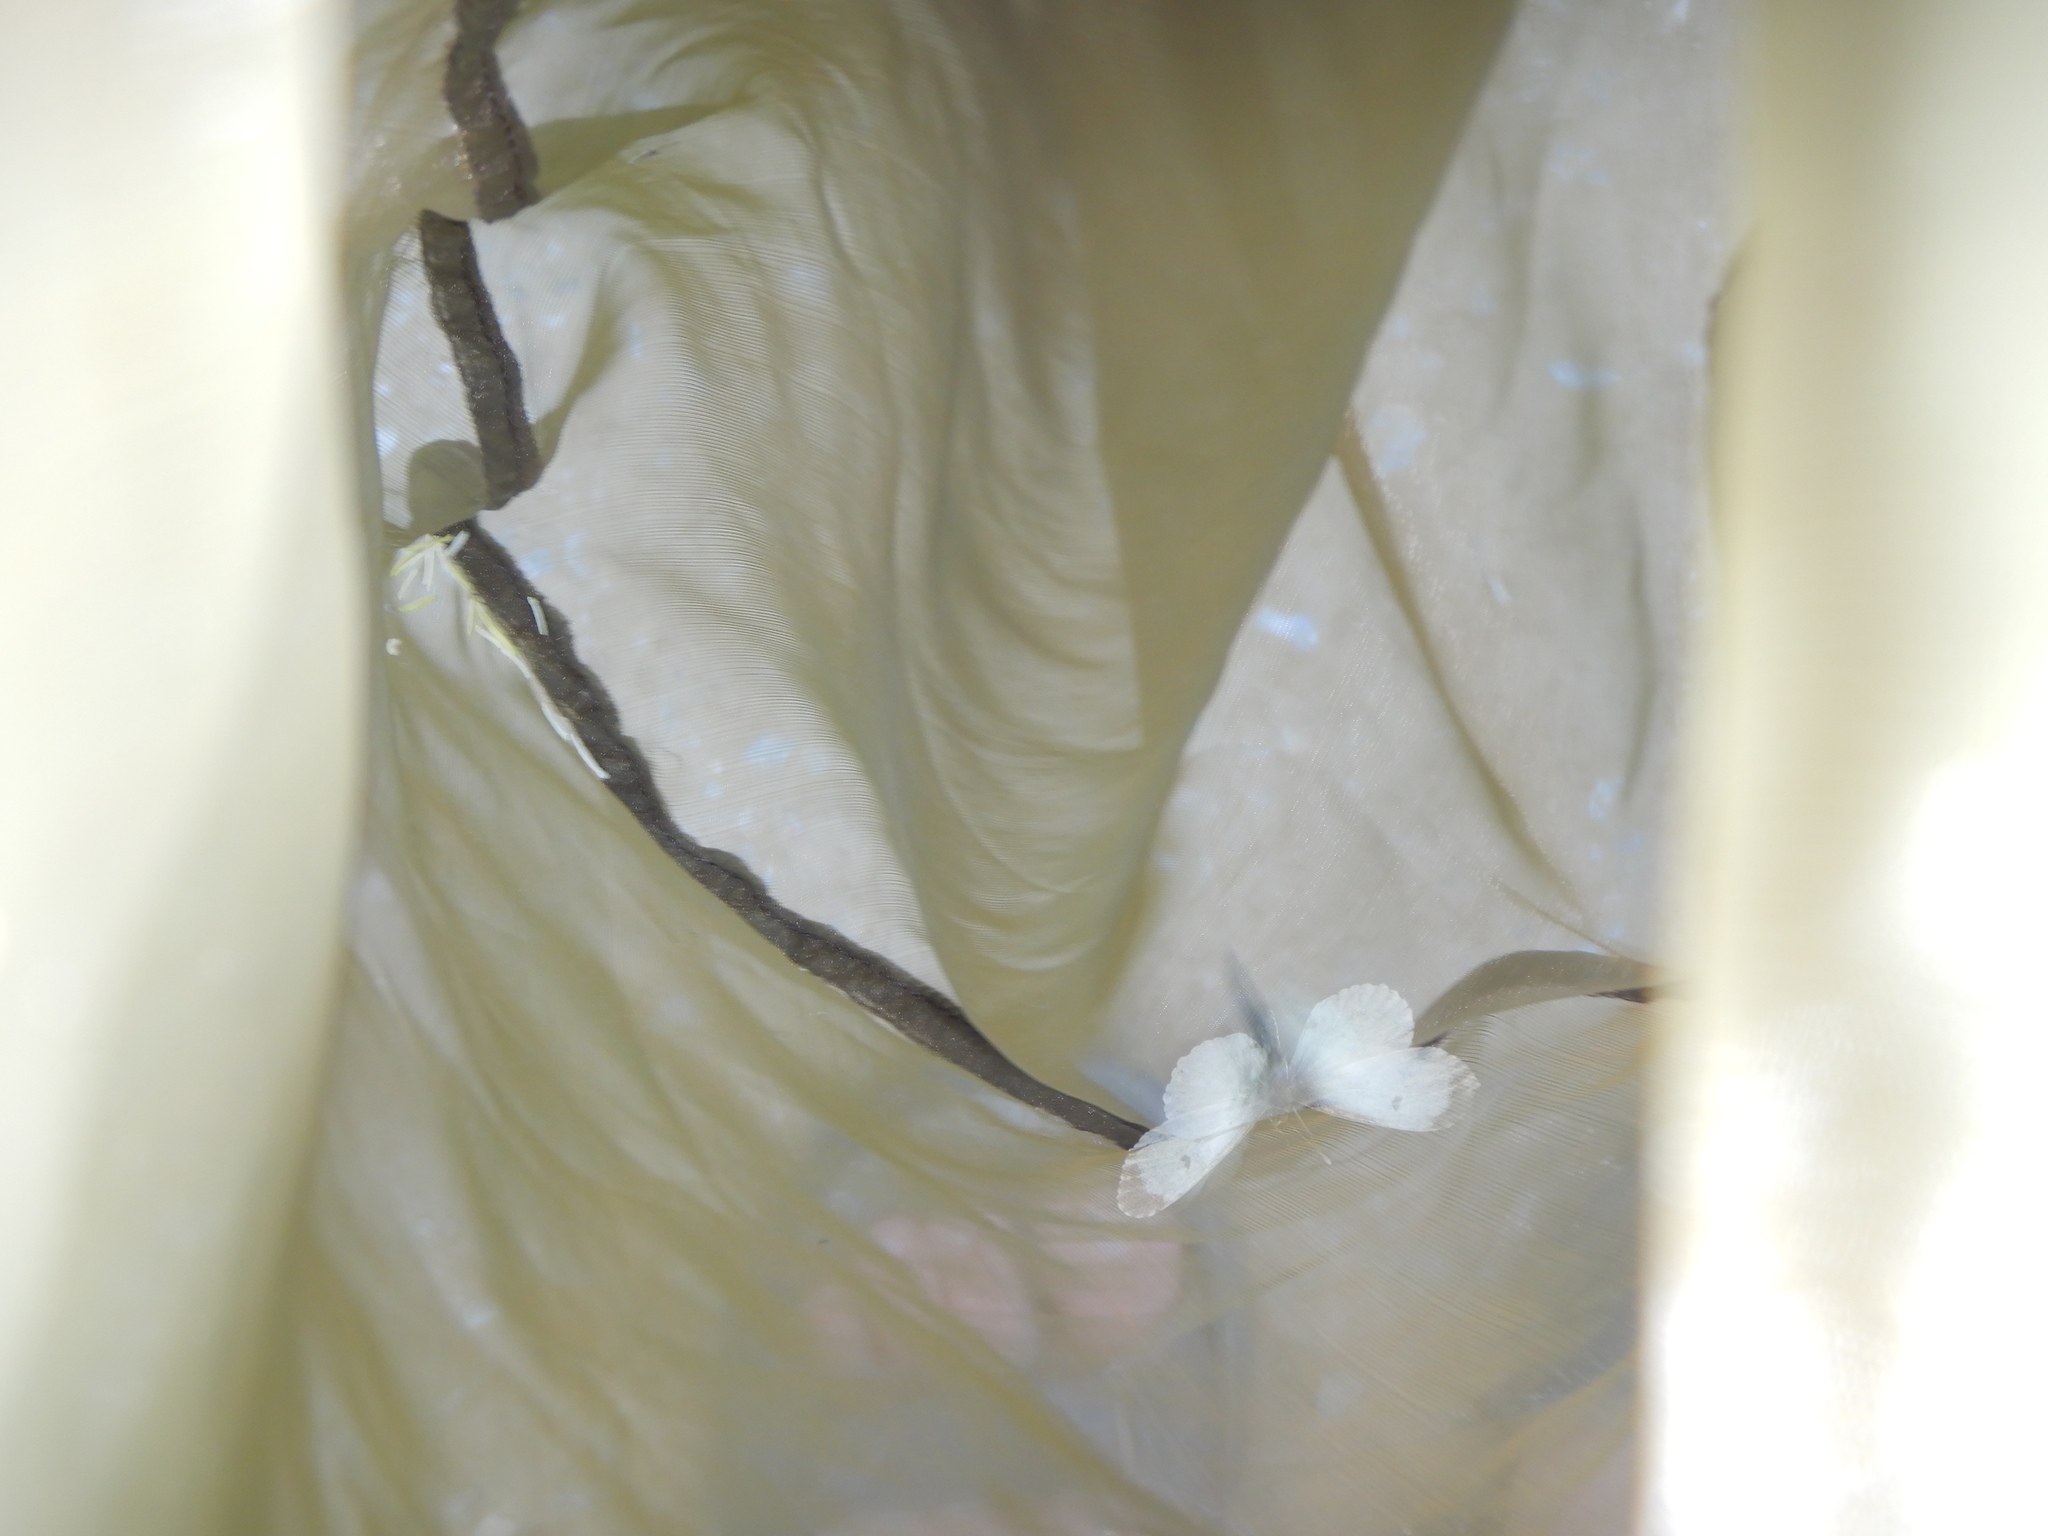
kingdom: Animalia
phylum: Arthropoda
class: Insecta
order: Lepidoptera
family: Pieridae
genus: Euchloe
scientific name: Euchloe ausonia
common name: Eastern dappled white
